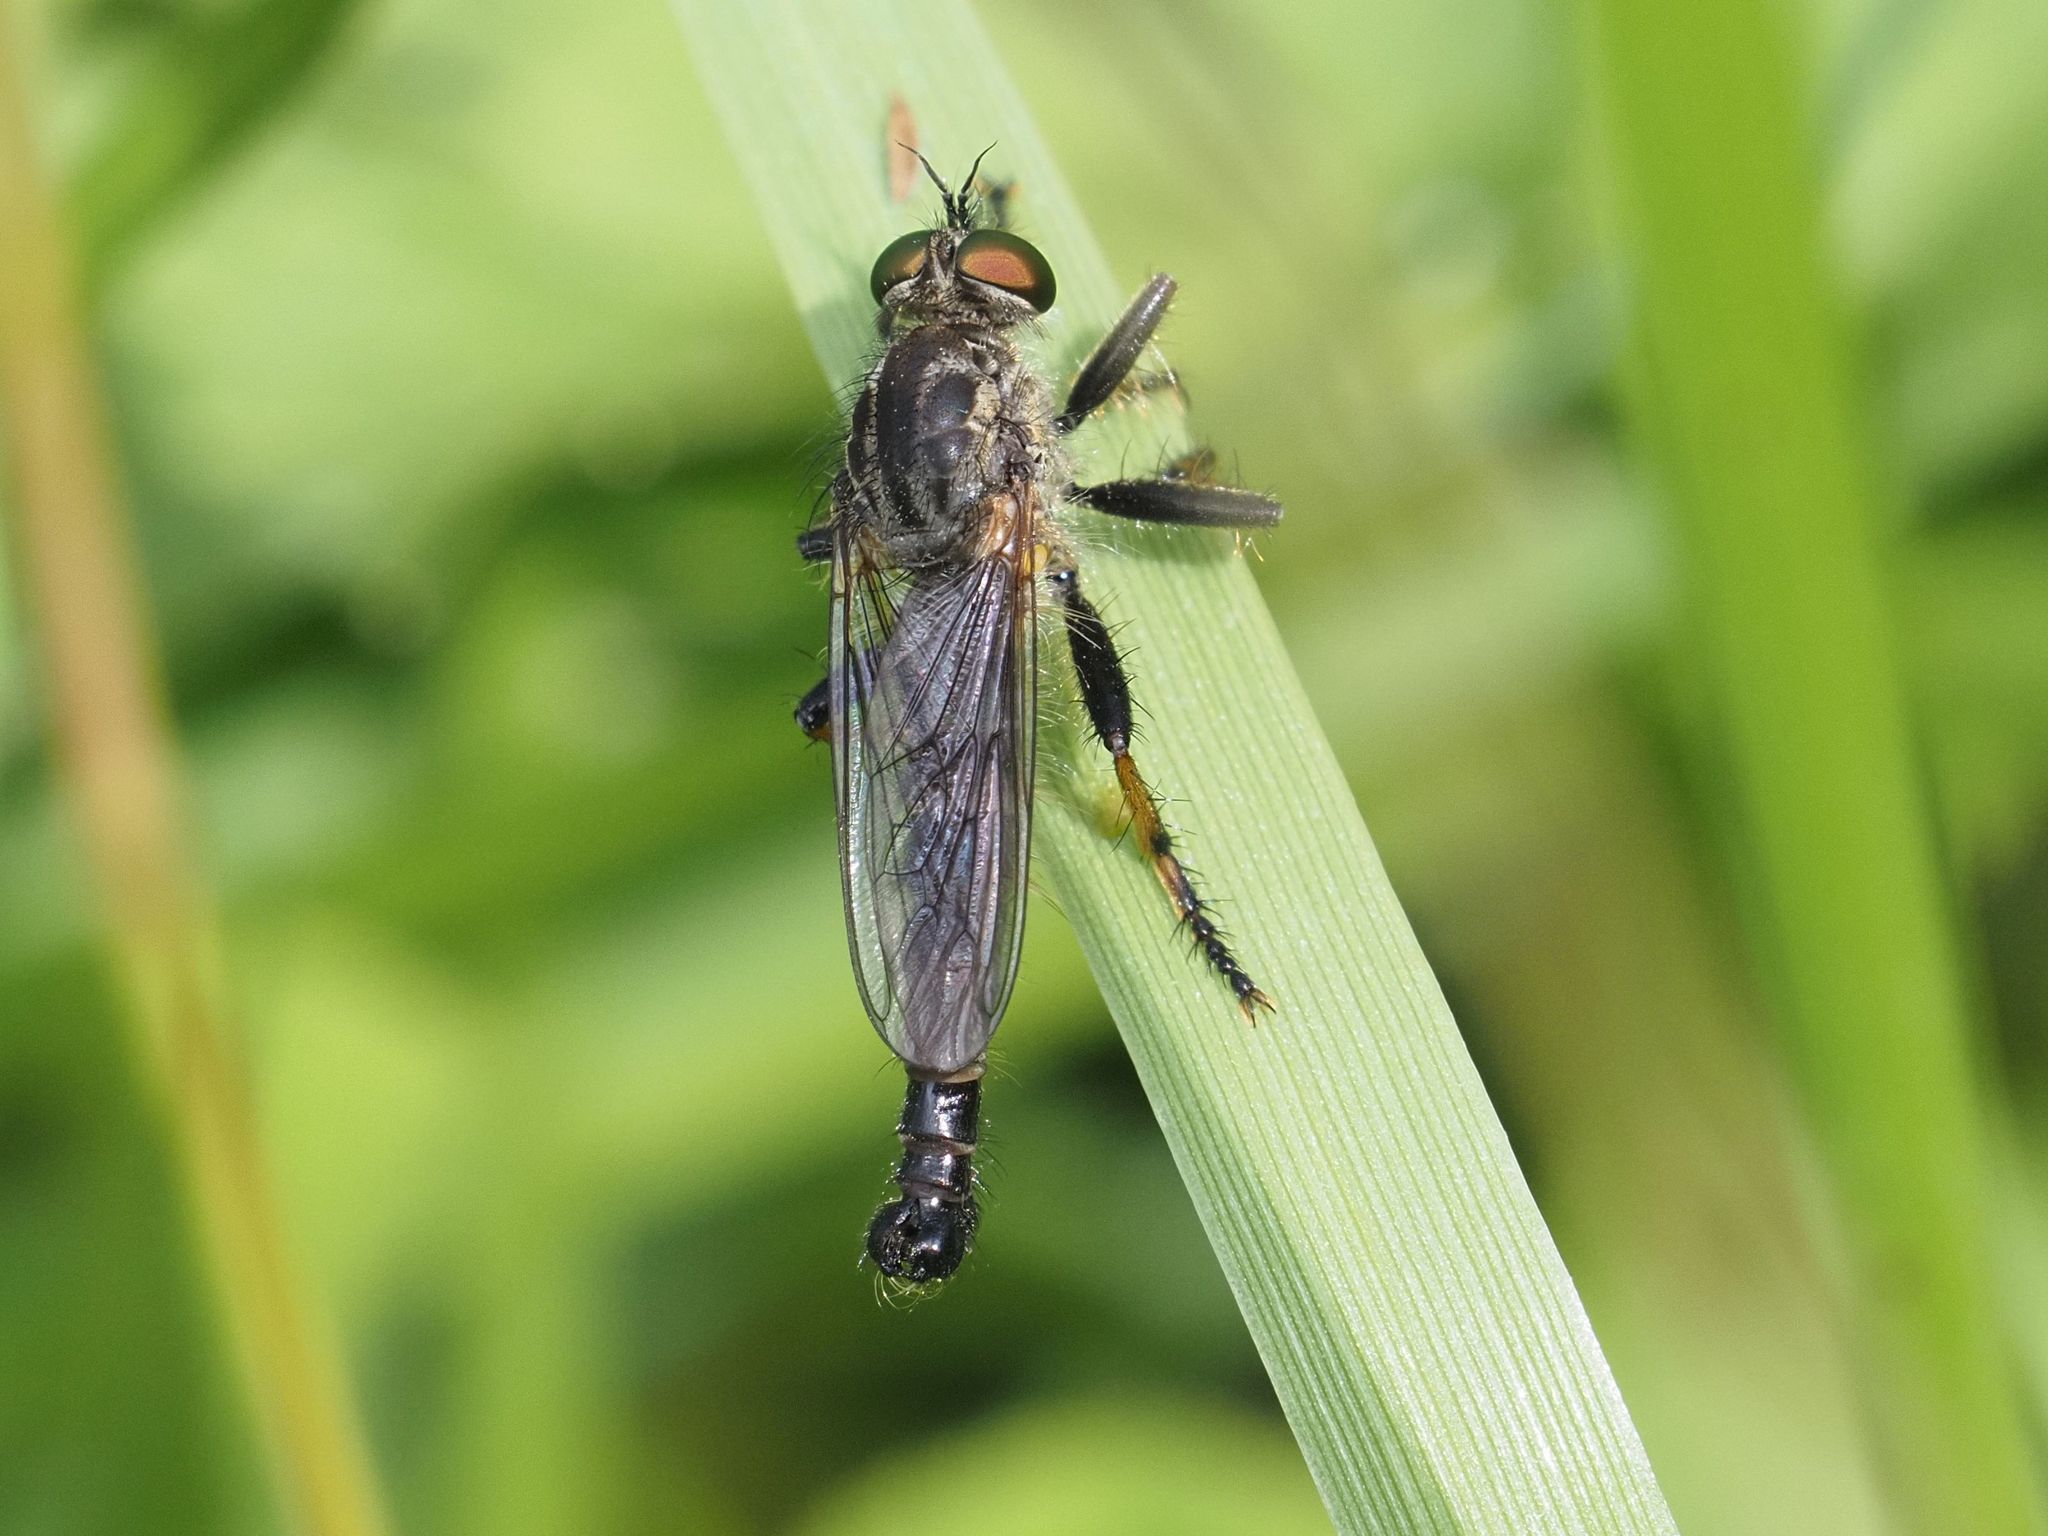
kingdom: Animalia
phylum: Arthropoda
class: Insecta
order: Diptera
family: Asilidae
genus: Neoitamus
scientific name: Neoitamus cothurnatus
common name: Scarce awl robberfly
